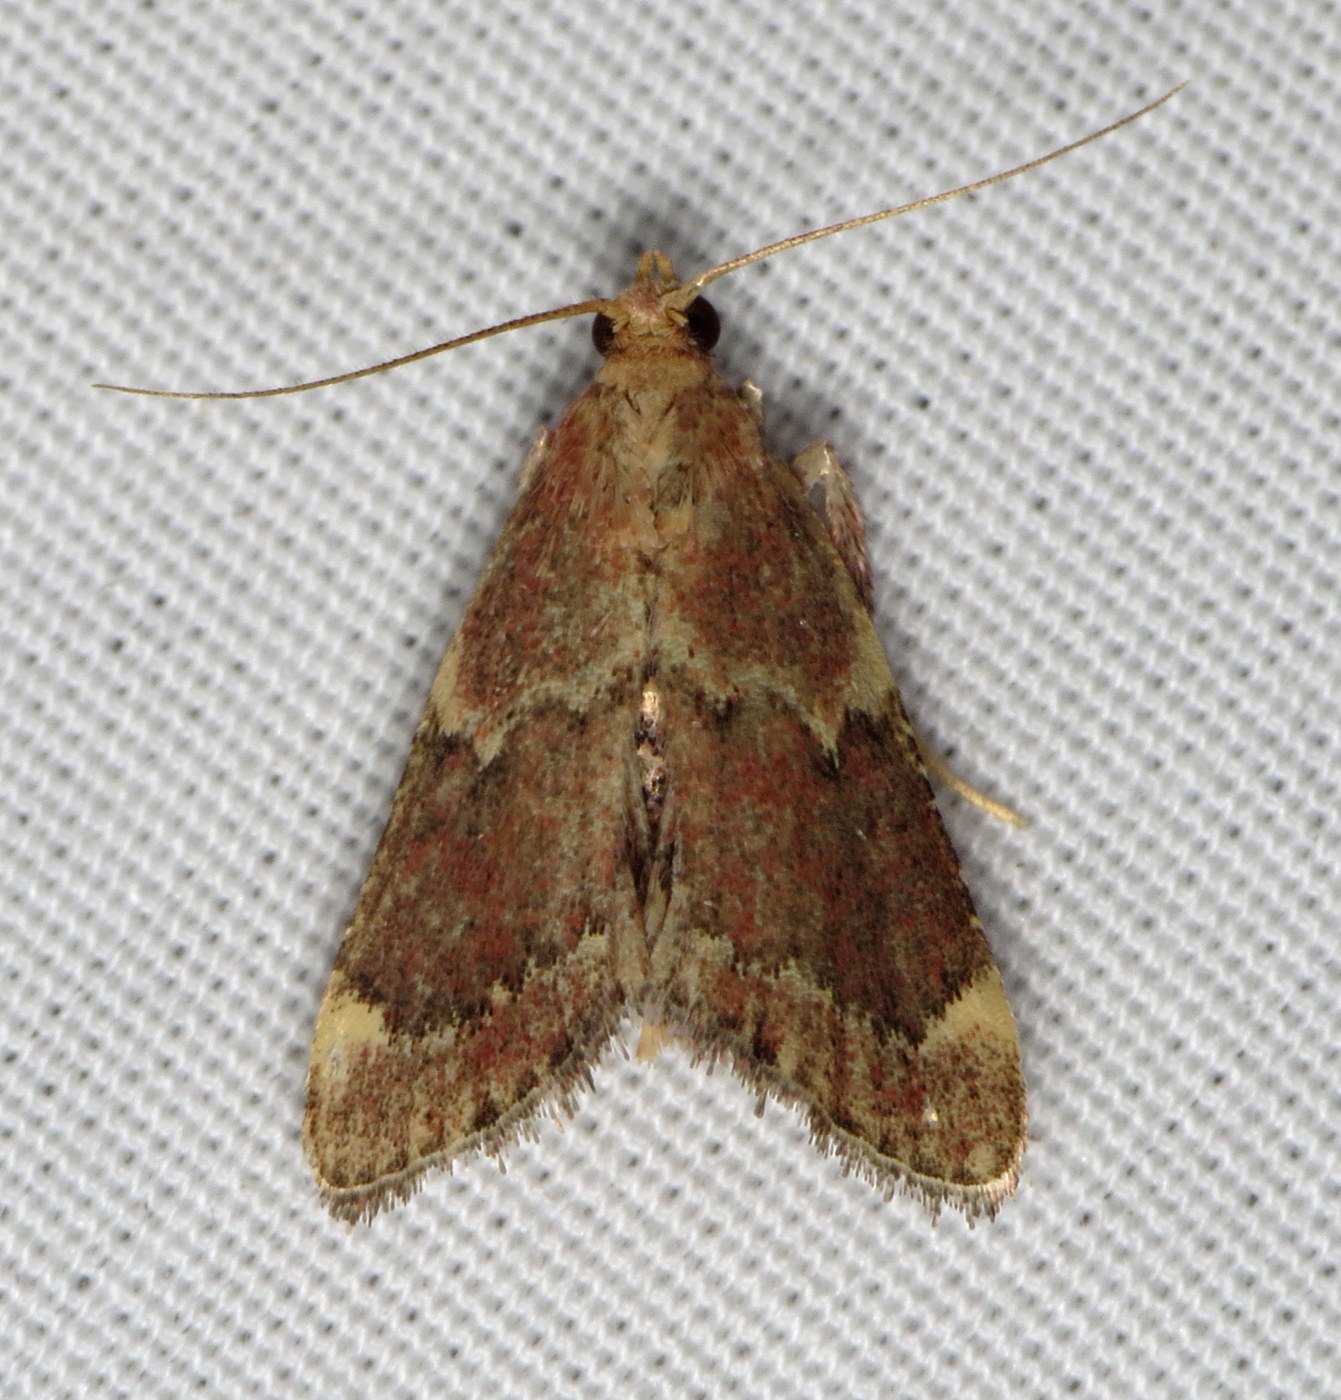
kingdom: Animalia
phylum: Arthropoda
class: Insecta
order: Lepidoptera
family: Pyralidae
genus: Hypsopygia
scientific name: Hypsopygia intermedialis
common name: Red-shawled moth
